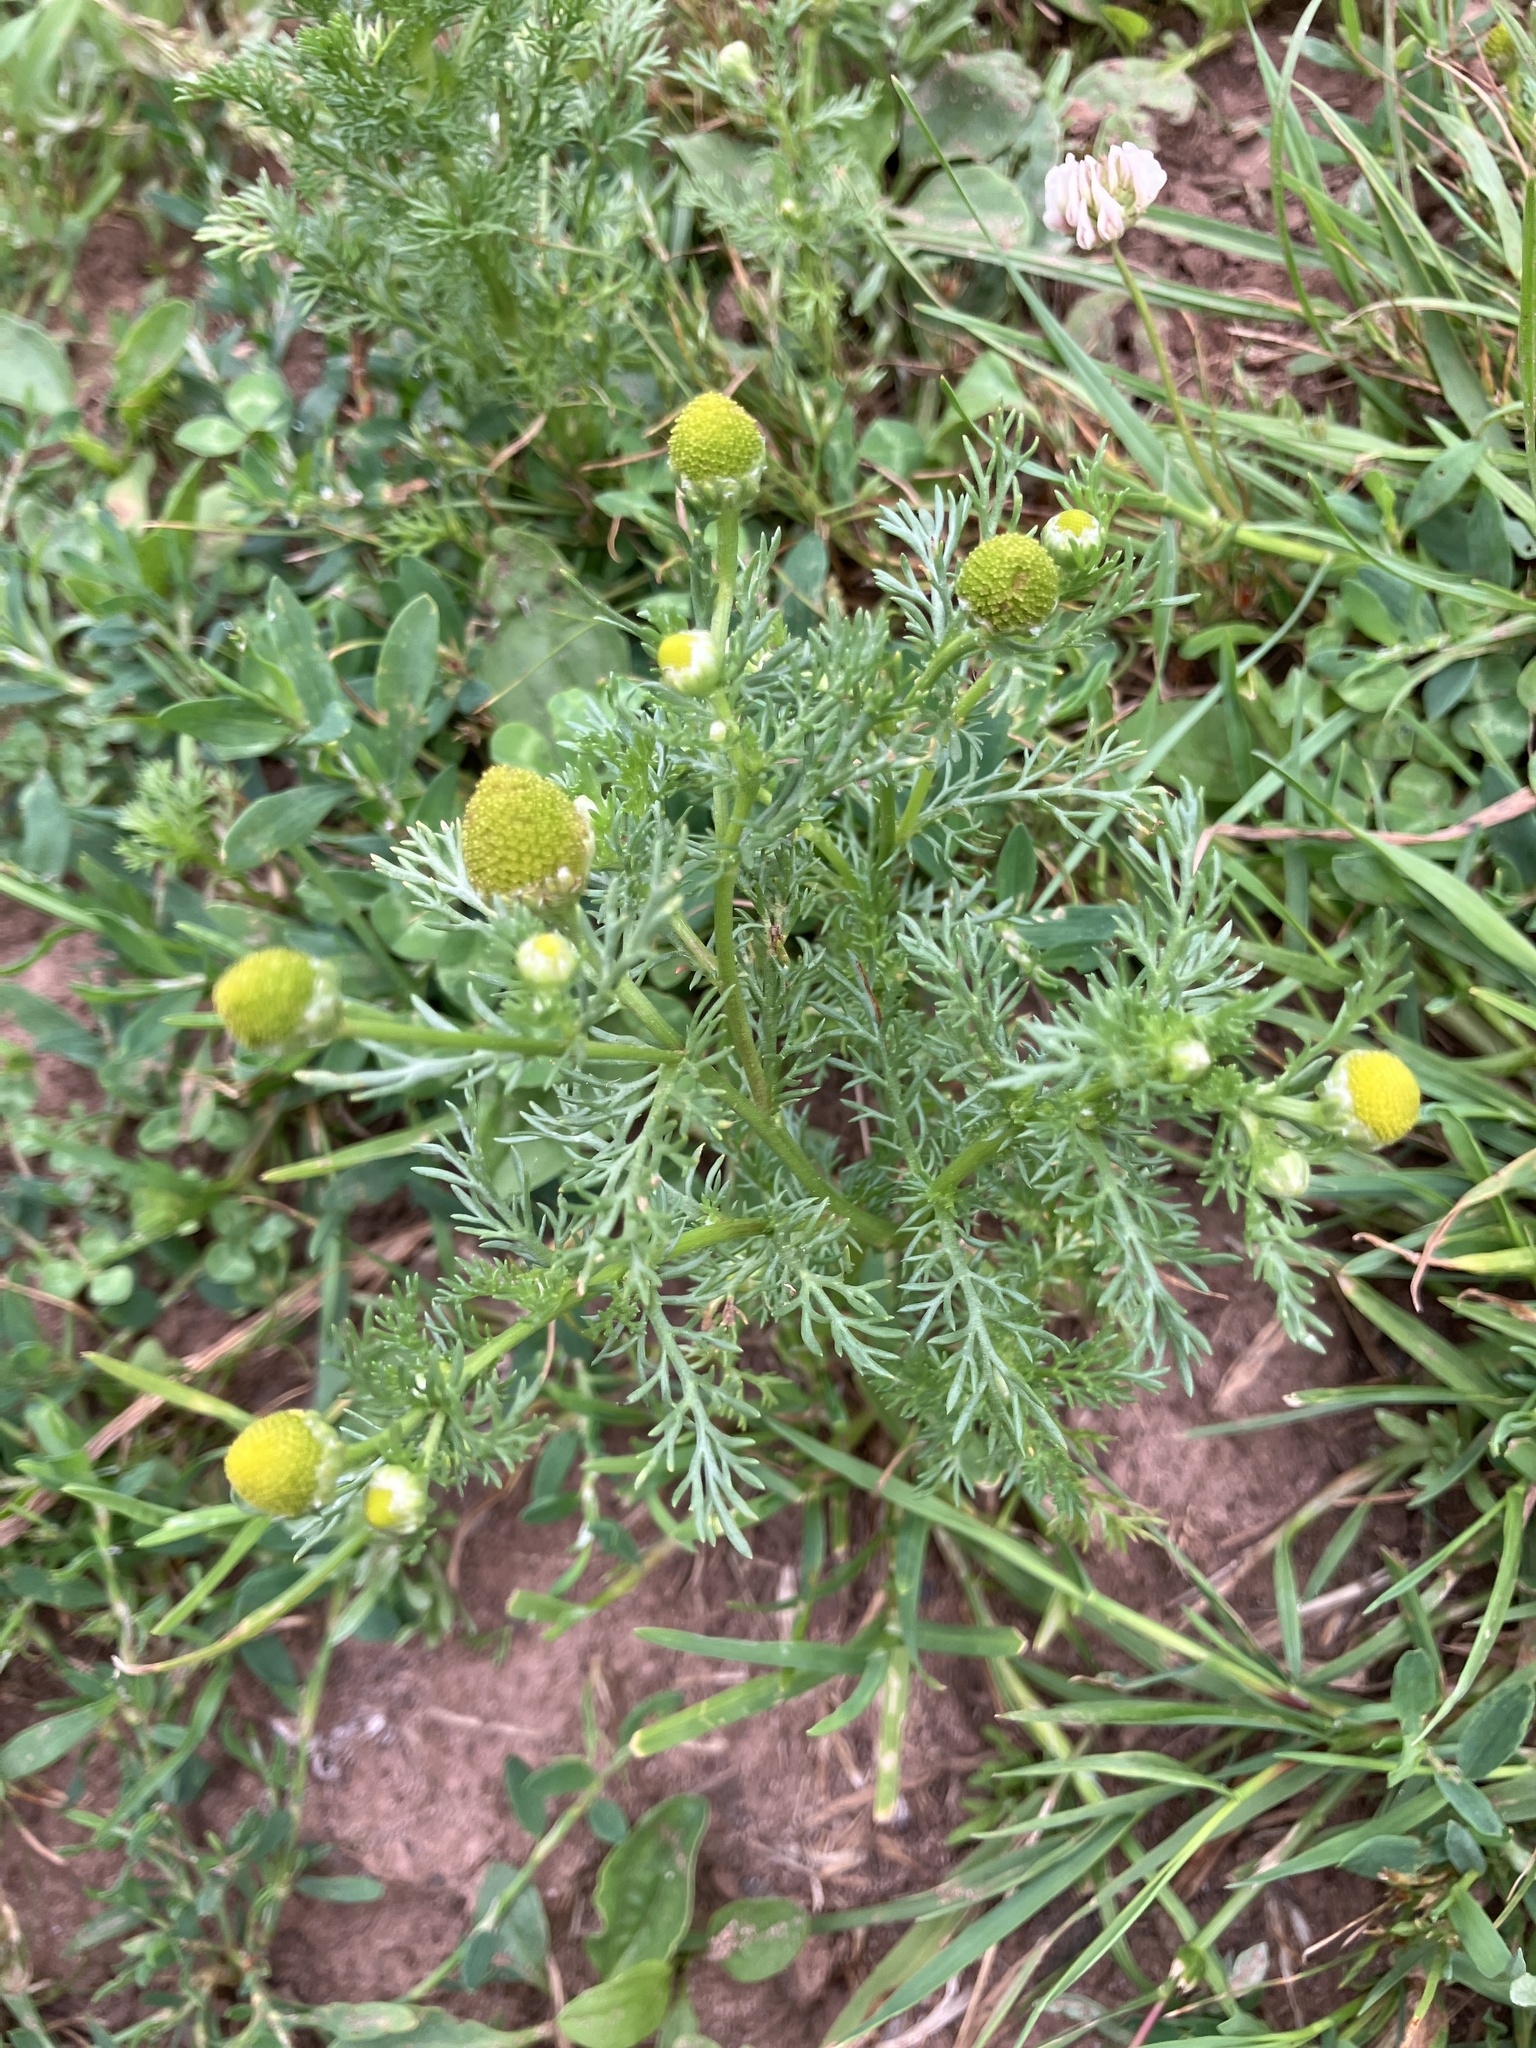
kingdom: Plantae
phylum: Tracheophyta
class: Magnoliopsida
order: Asterales
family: Asteraceae
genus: Matricaria
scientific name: Matricaria discoidea
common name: Disc mayweed
